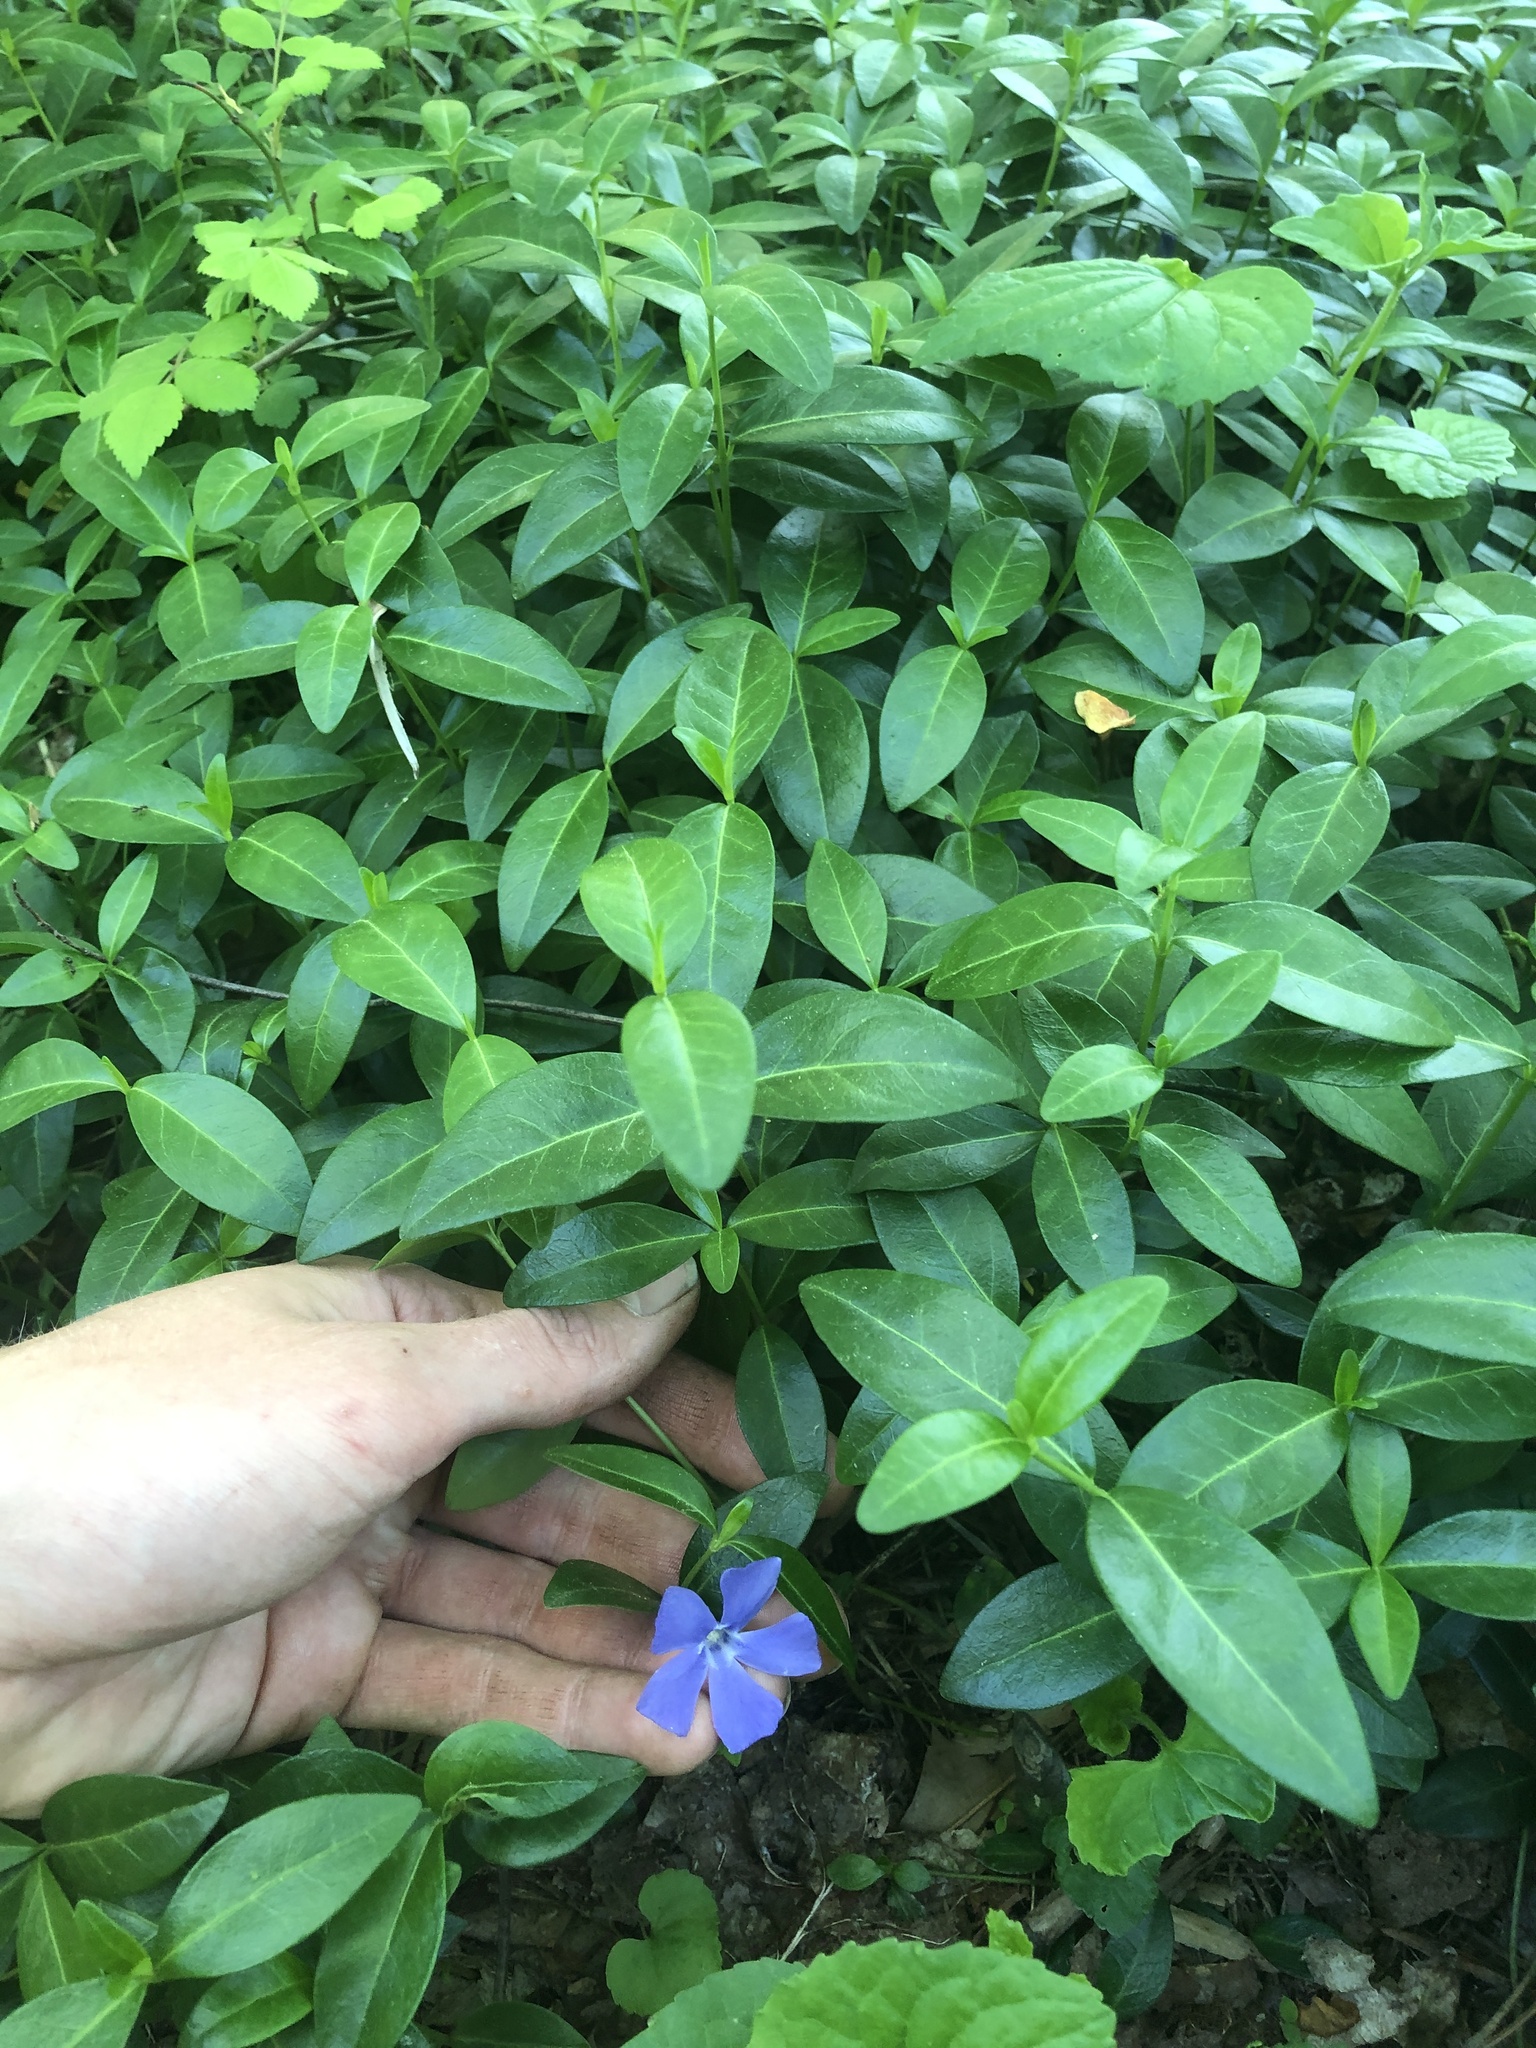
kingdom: Plantae
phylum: Tracheophyta
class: Magnoliopsida
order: Gentianales
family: Apocynaceae
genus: Vinca
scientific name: Vinca minor
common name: Lesser periwinkle
